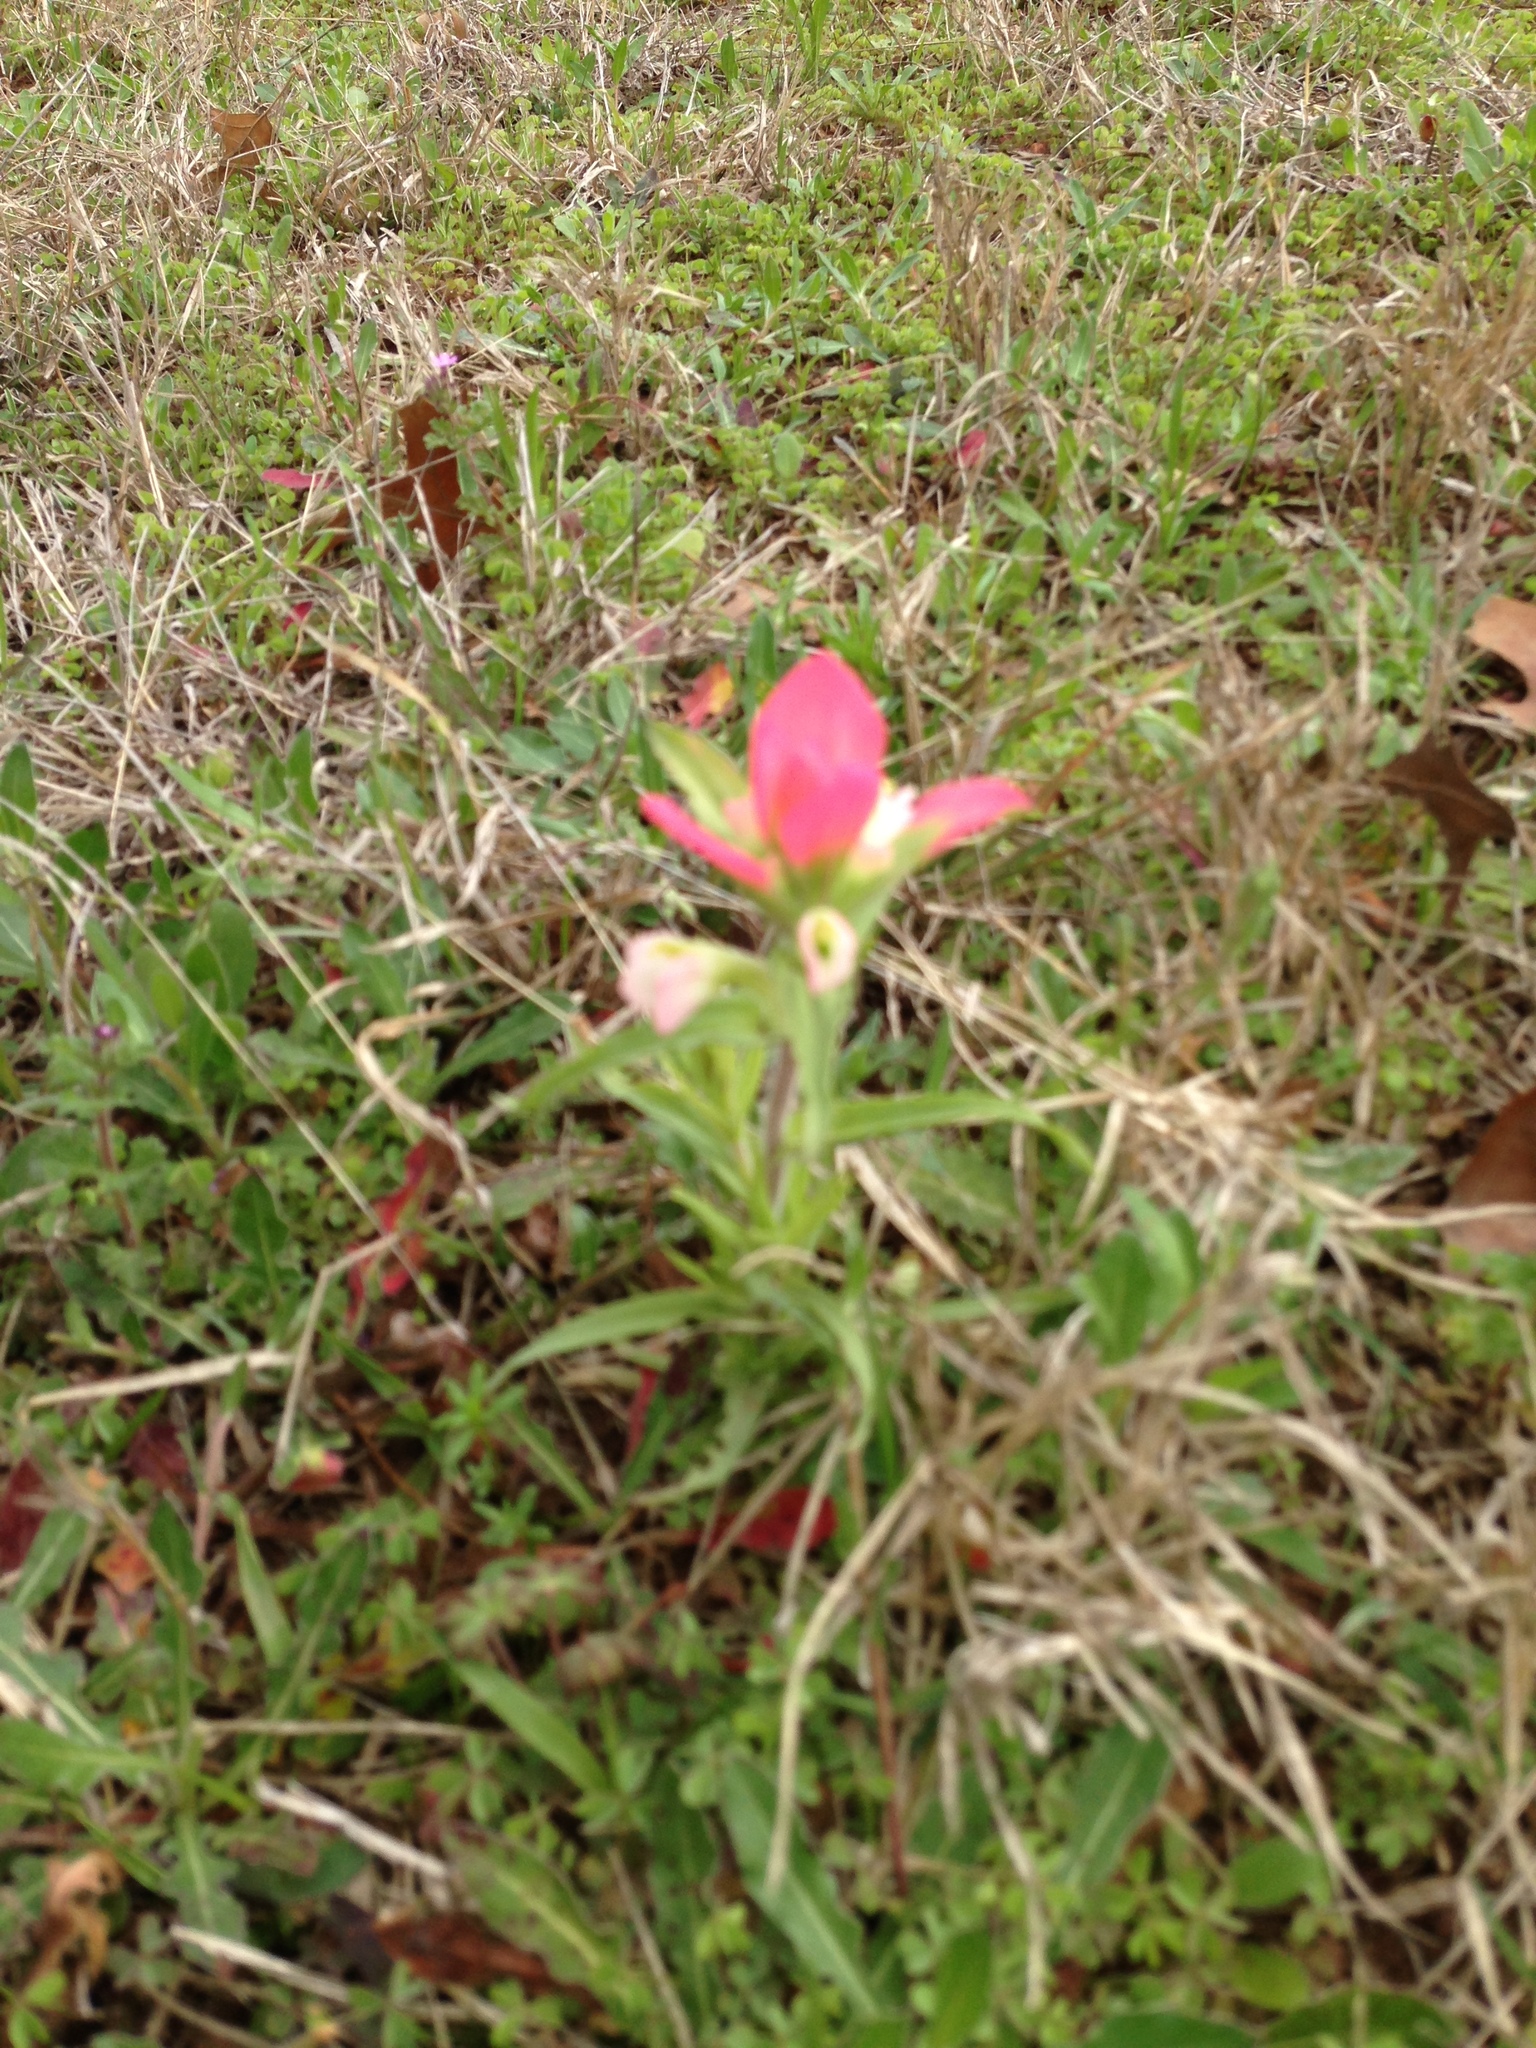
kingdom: Plantae
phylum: Tracheophyta
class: Magnoliopsida
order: Lamiales
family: Orobanchaceae
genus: Castilleja
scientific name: Castilleja indivisa
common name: Texas paintbrush
